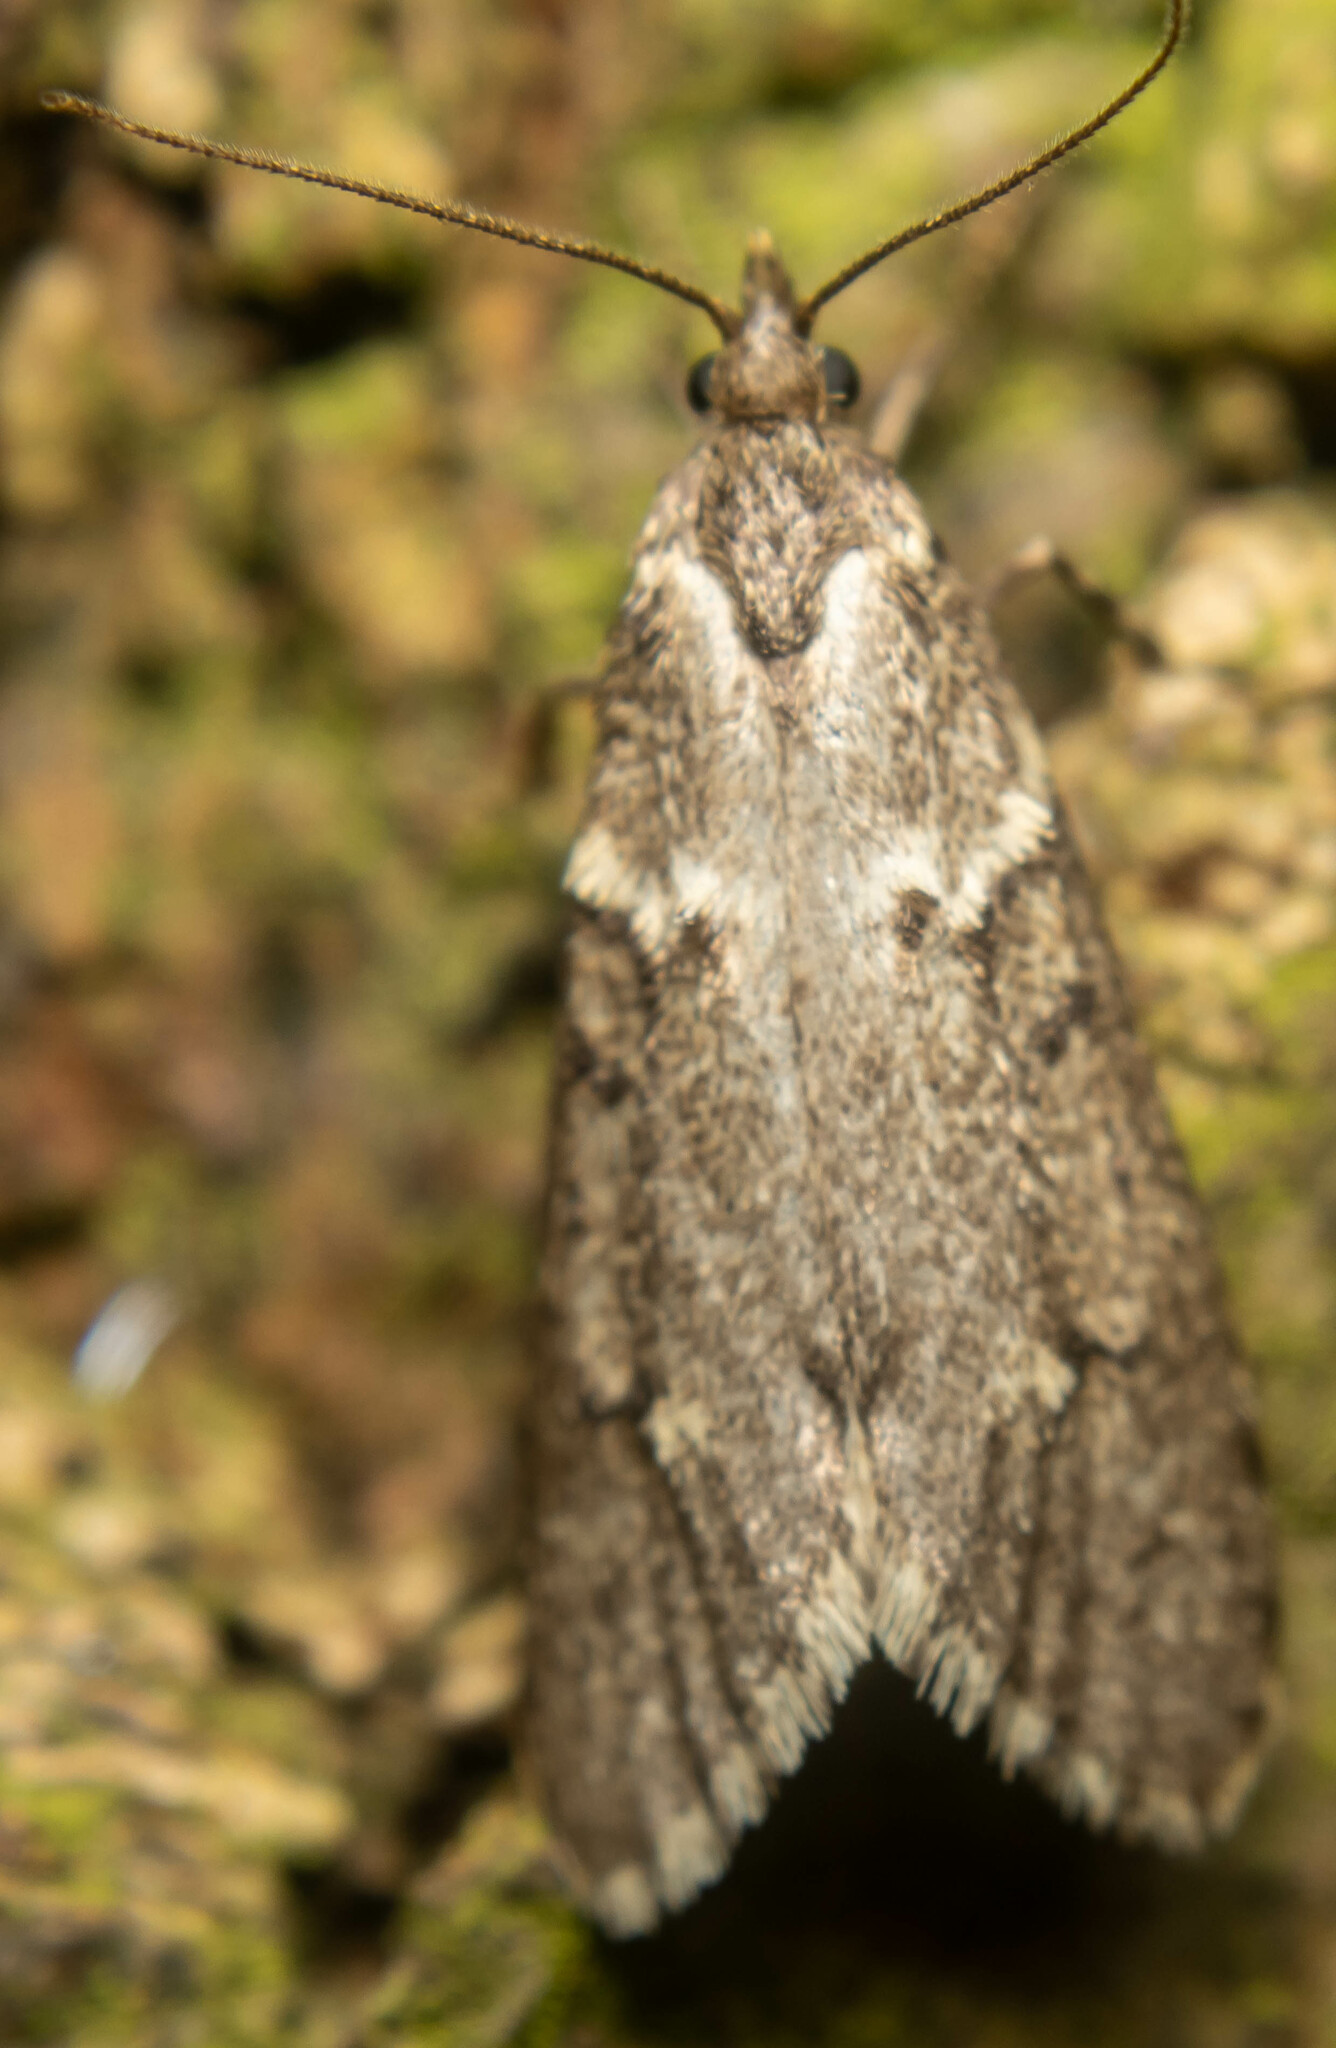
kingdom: Animalia
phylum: Arthropoda
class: Insecta
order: Lepidoptera
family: Lypusidae
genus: Diurnea
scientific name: Diurnea fagella
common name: March tubic
